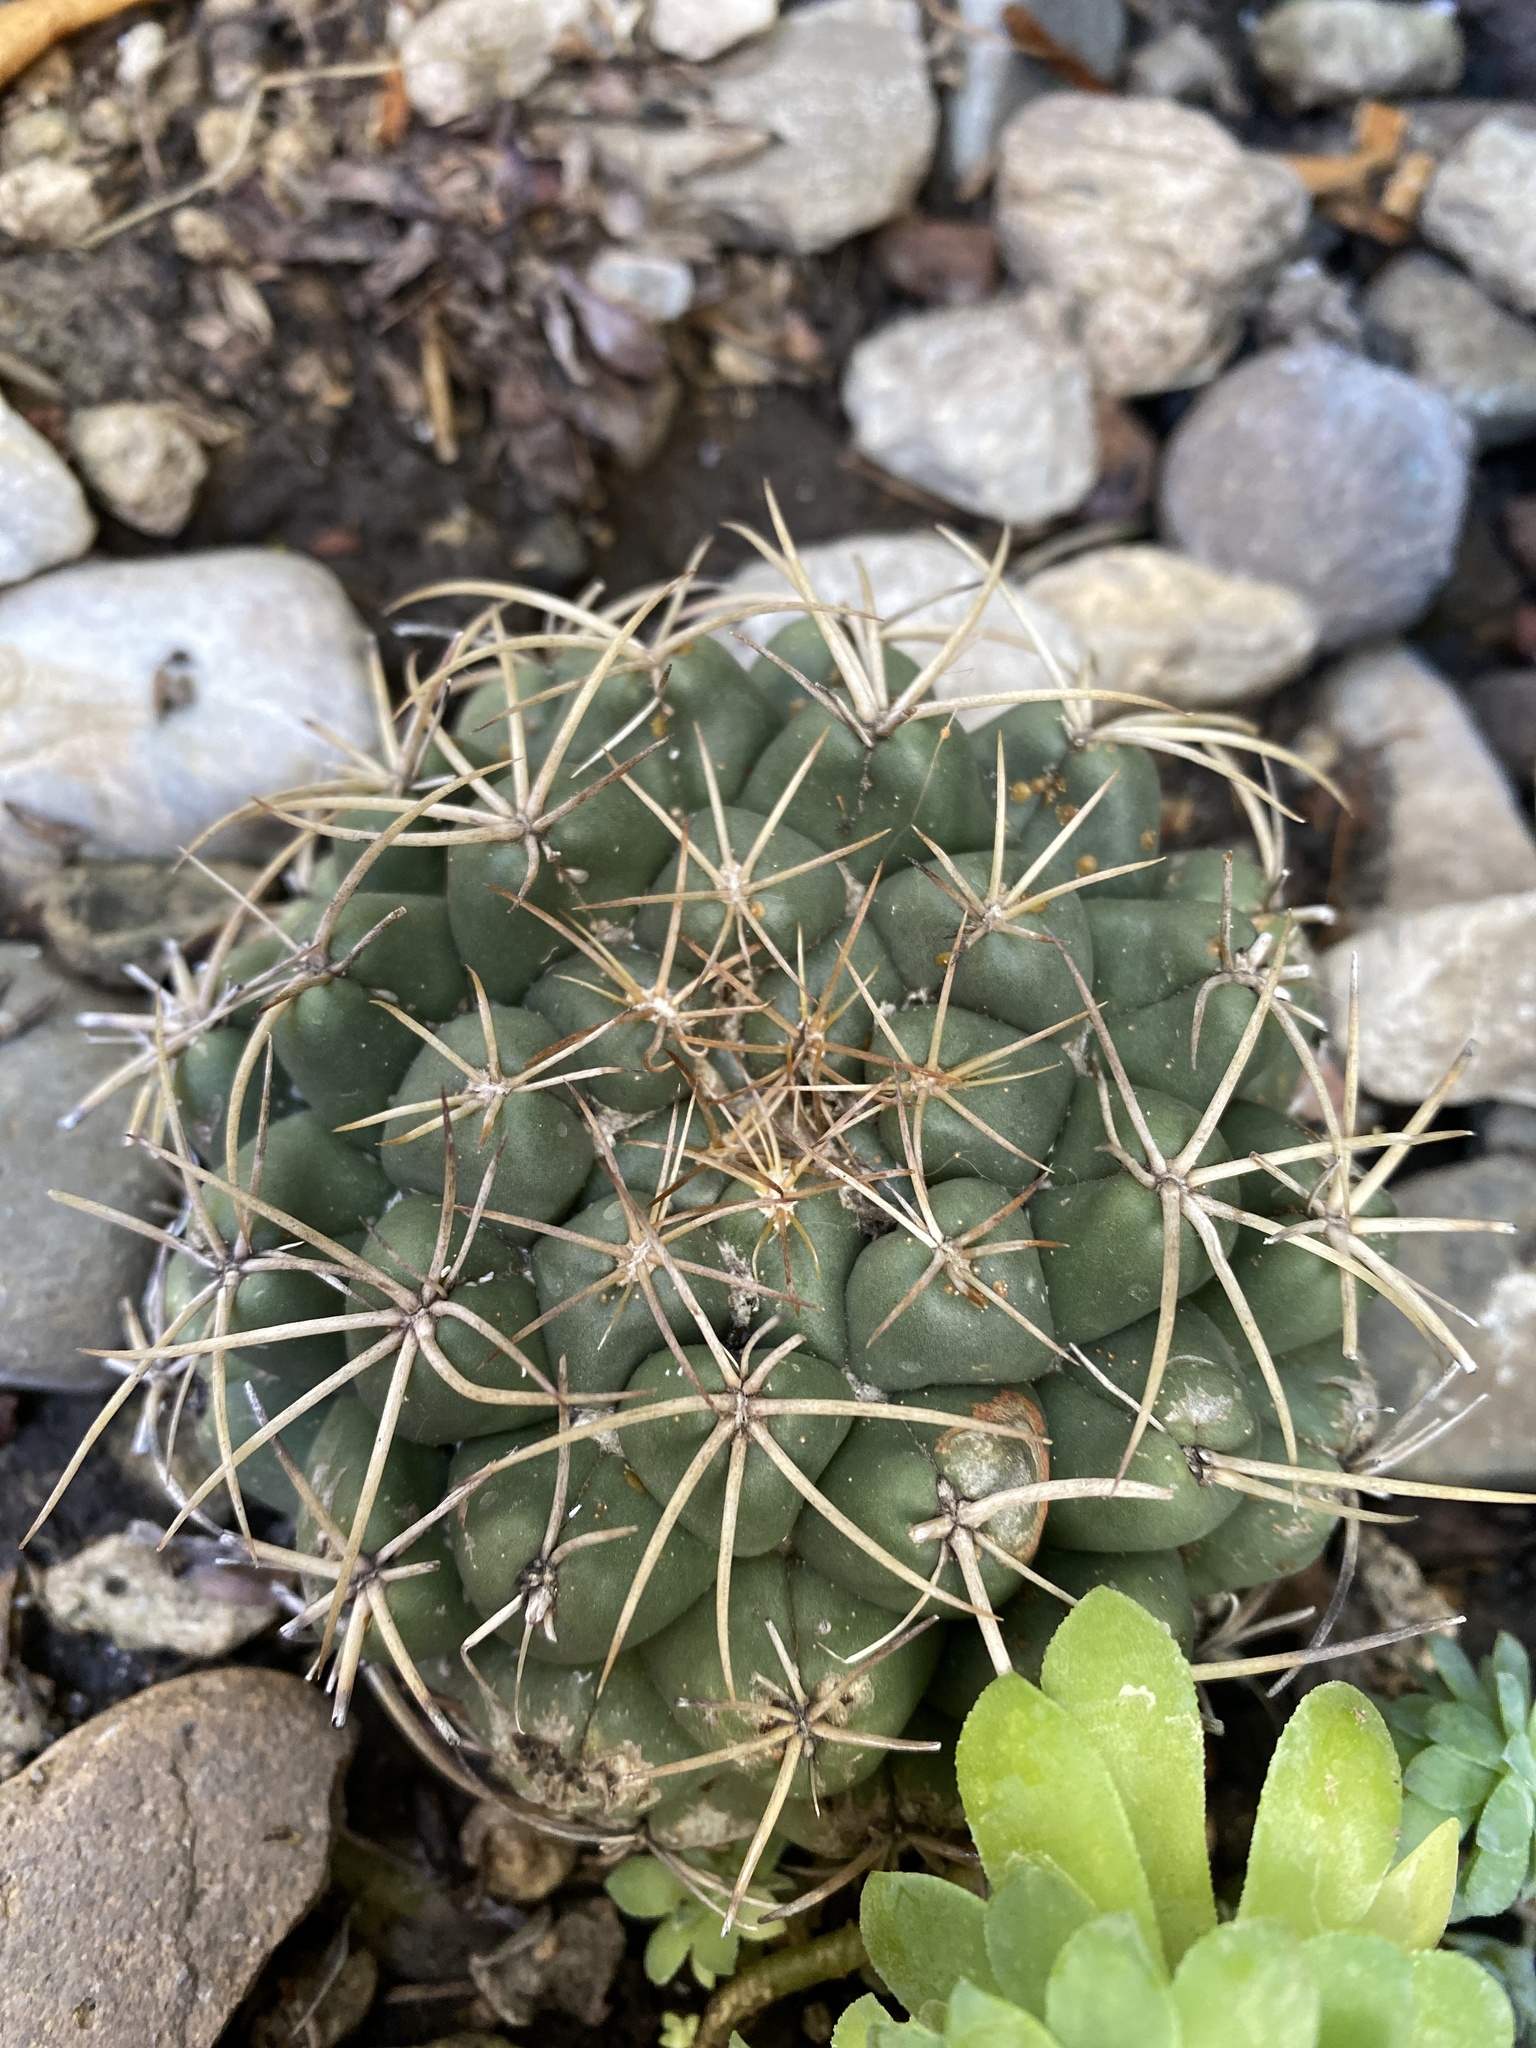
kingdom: Plantae
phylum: Tracheophyta
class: Magnoliopsida
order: Caryophyllales
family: Cactaceae
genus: Coryphantha
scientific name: Coryphantha elephantidens
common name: Elephant's tooth
